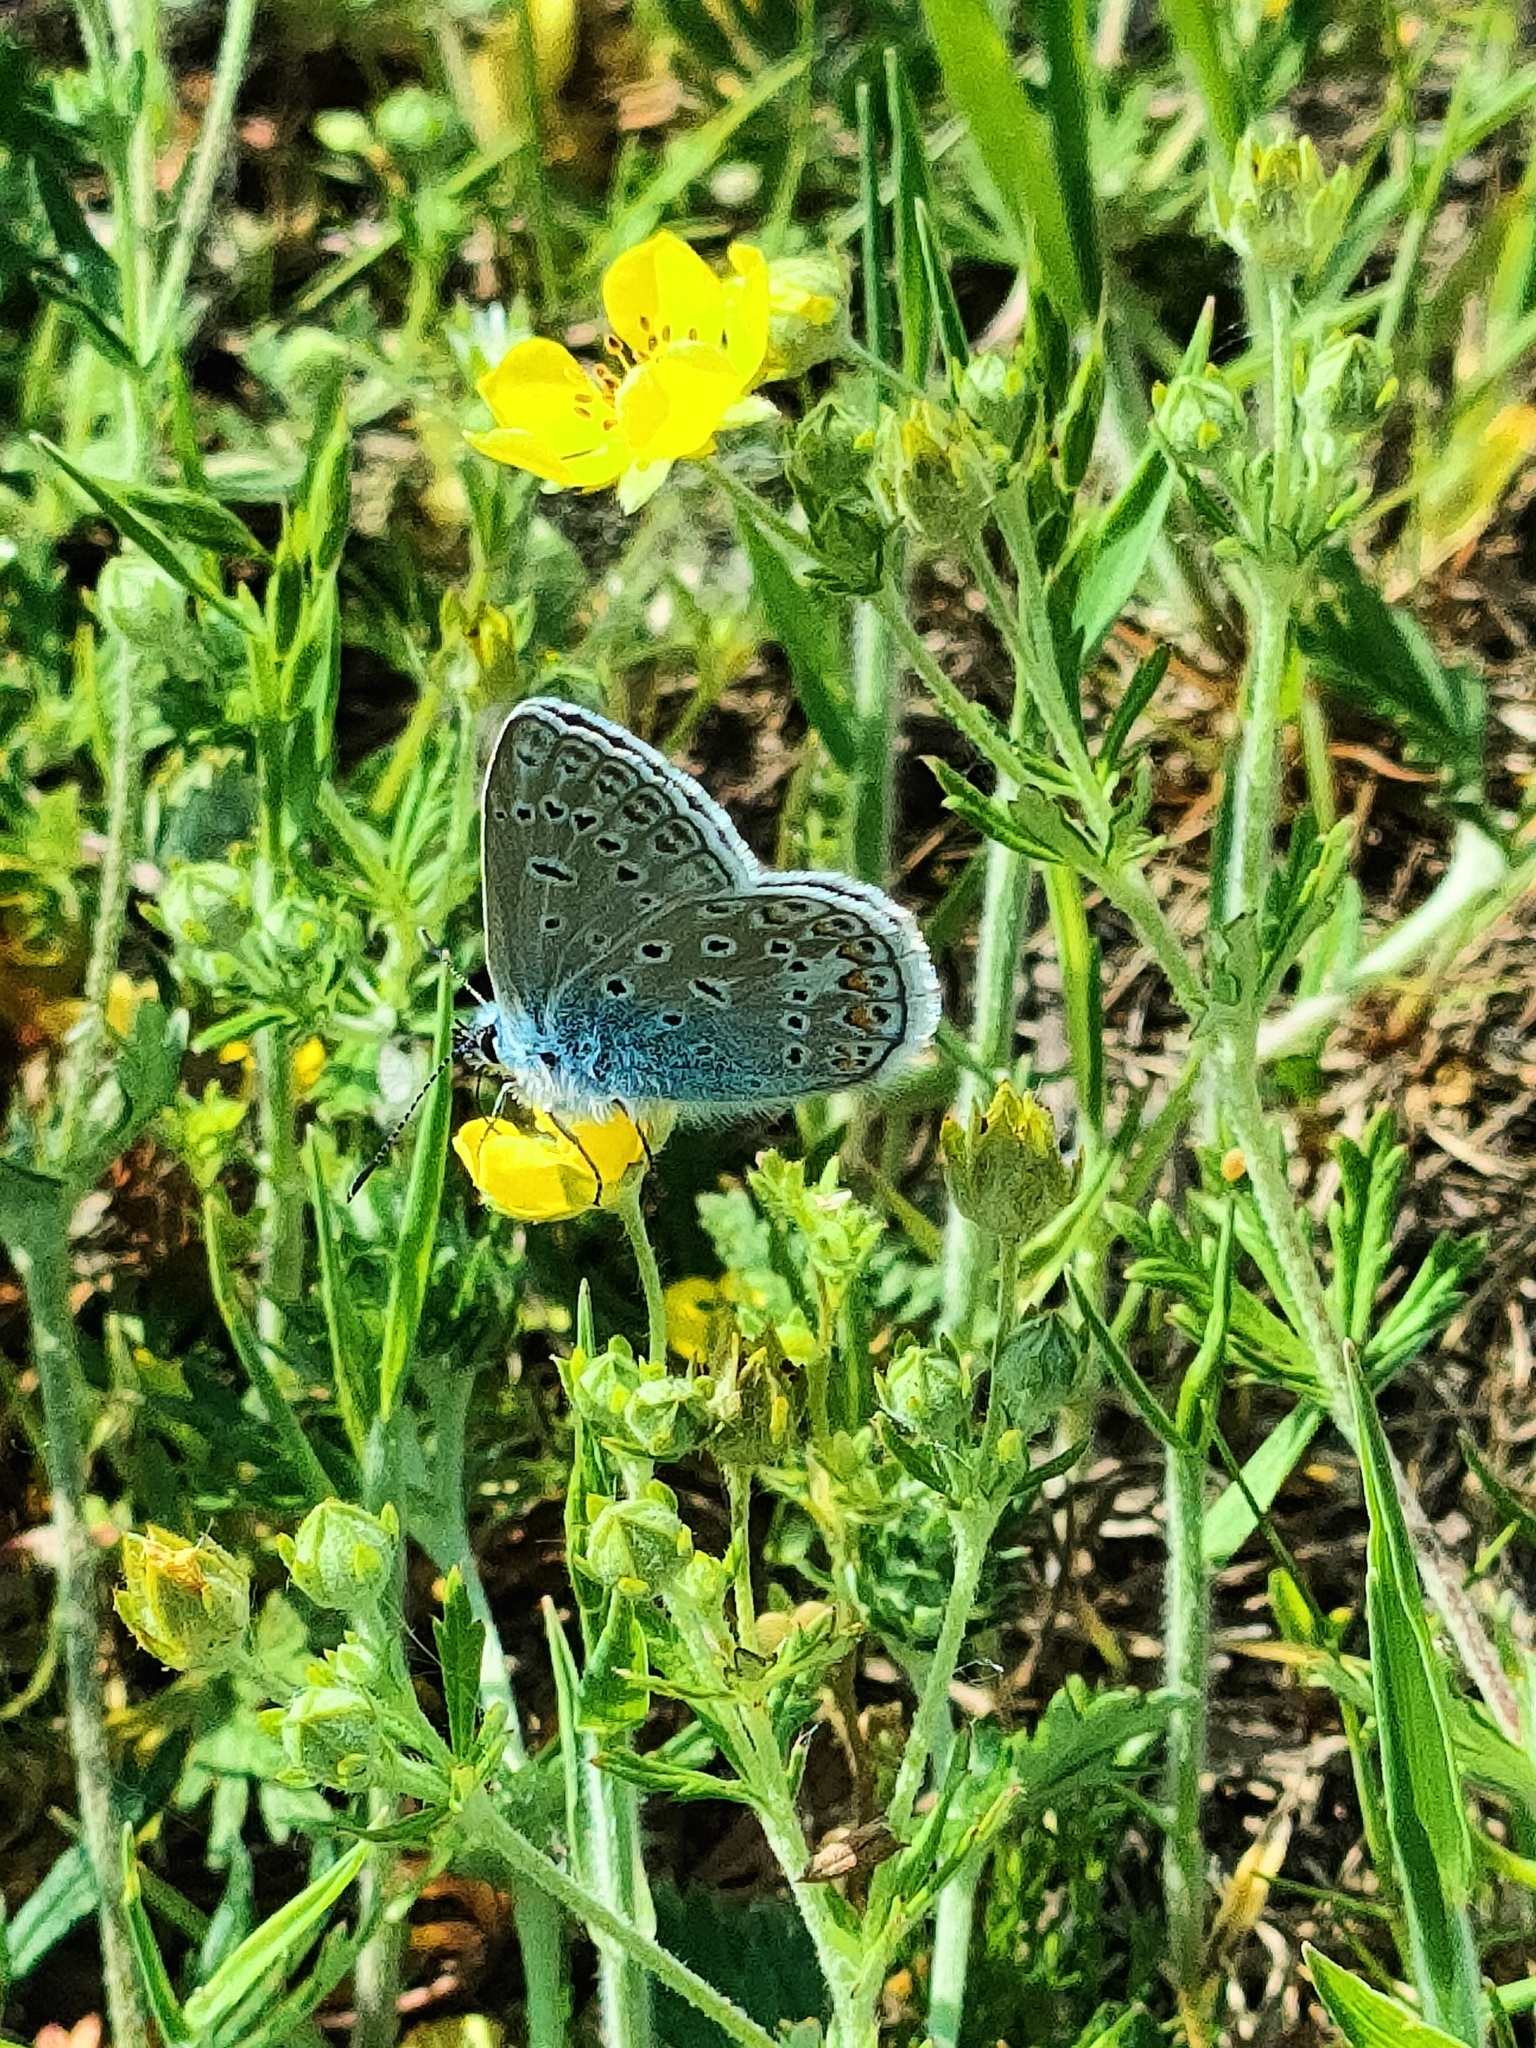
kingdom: Animalia
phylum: Arthropoda
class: Insecta
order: Lepidoptera
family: Lycaenidae
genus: Polyommatus
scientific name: Polyommatus icarus
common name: Common blue
